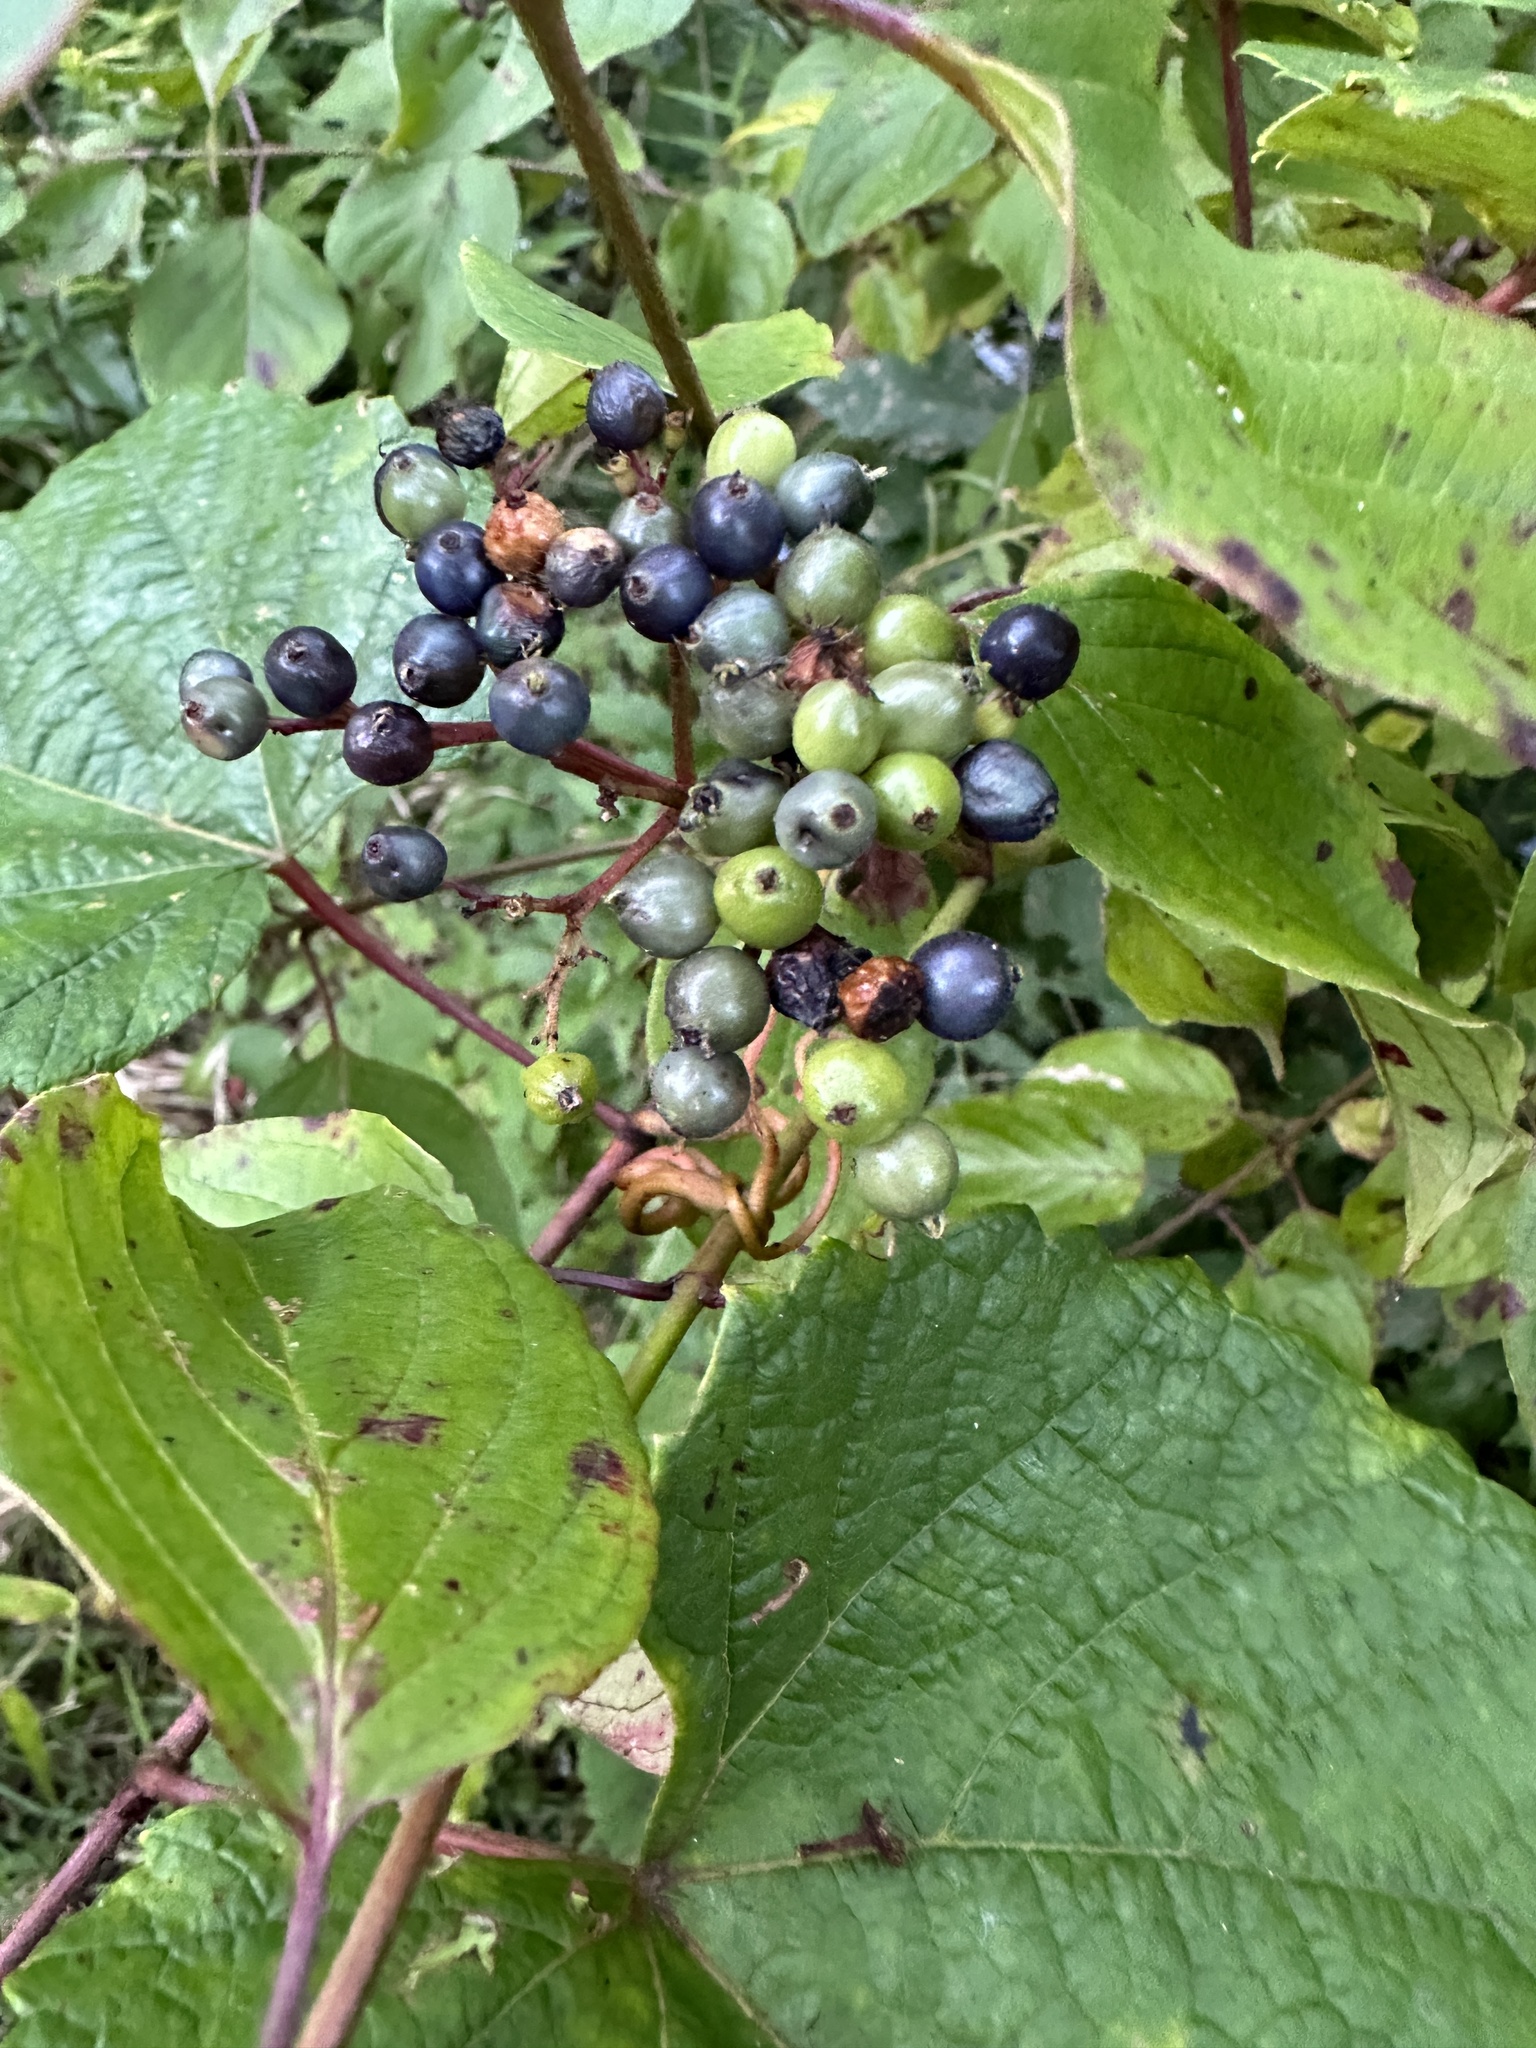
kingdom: Plantae
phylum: Tracheophyta
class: Magnoliopsida
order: Cornales
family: Cornaceae
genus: Cornus
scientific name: Cornus amomum
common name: Silky dogwood
